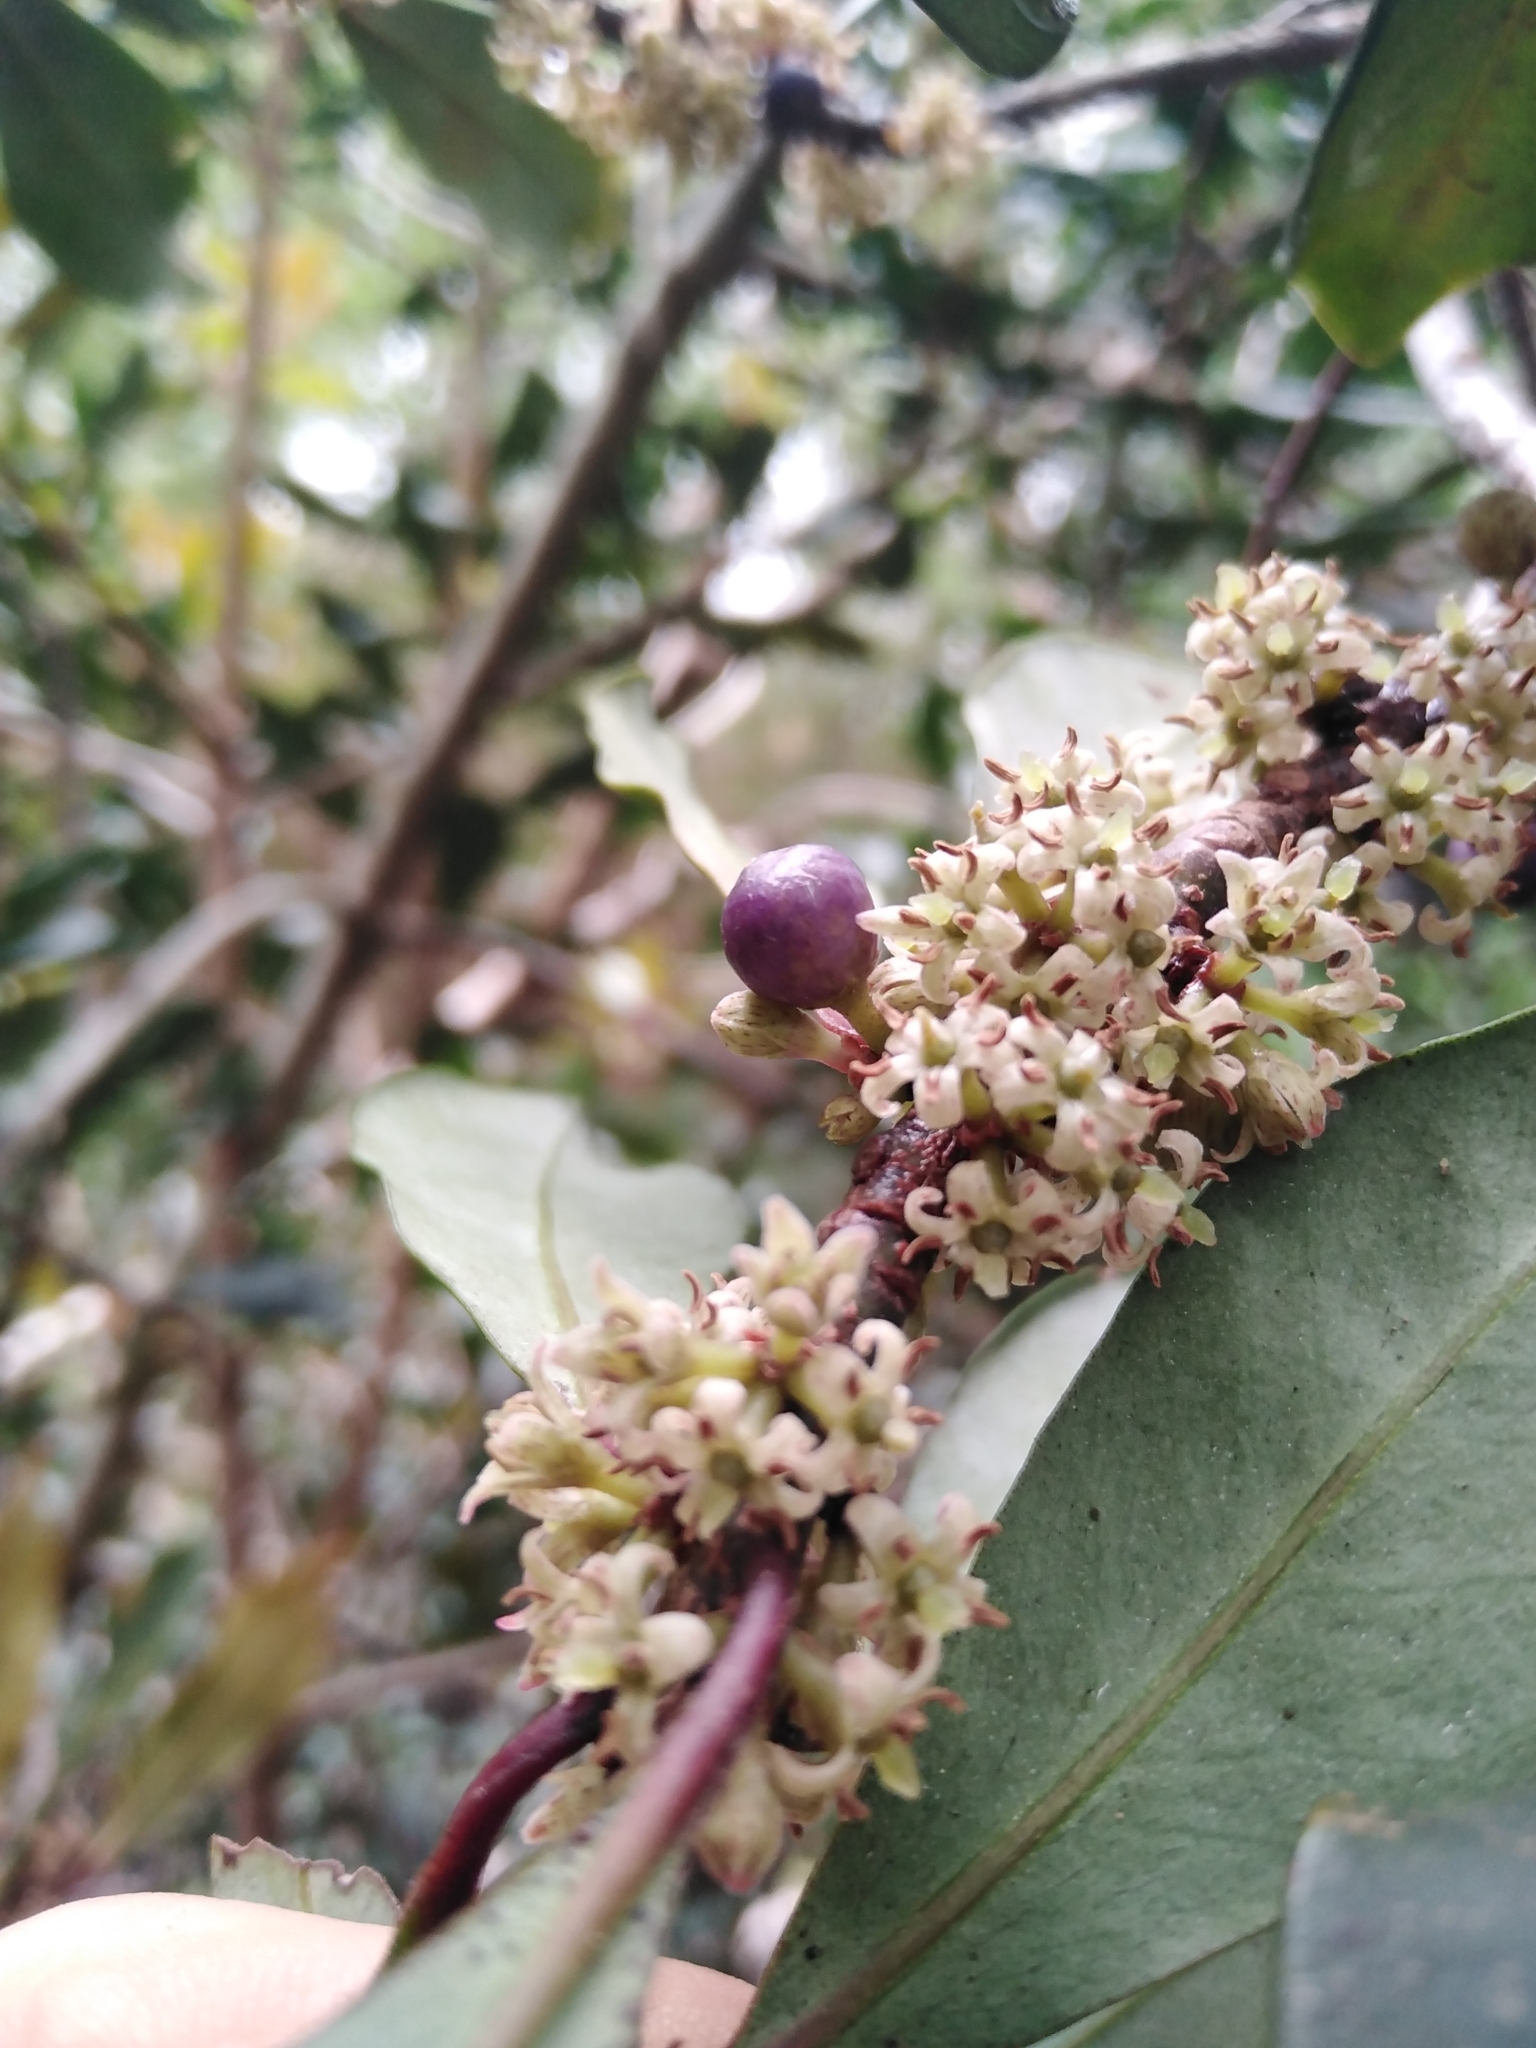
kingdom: Plantae
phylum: Tracheophyta
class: Magnoliopsida
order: Ericales
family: Primulaceae
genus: Myrsine
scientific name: Myrsine melanophloeos
